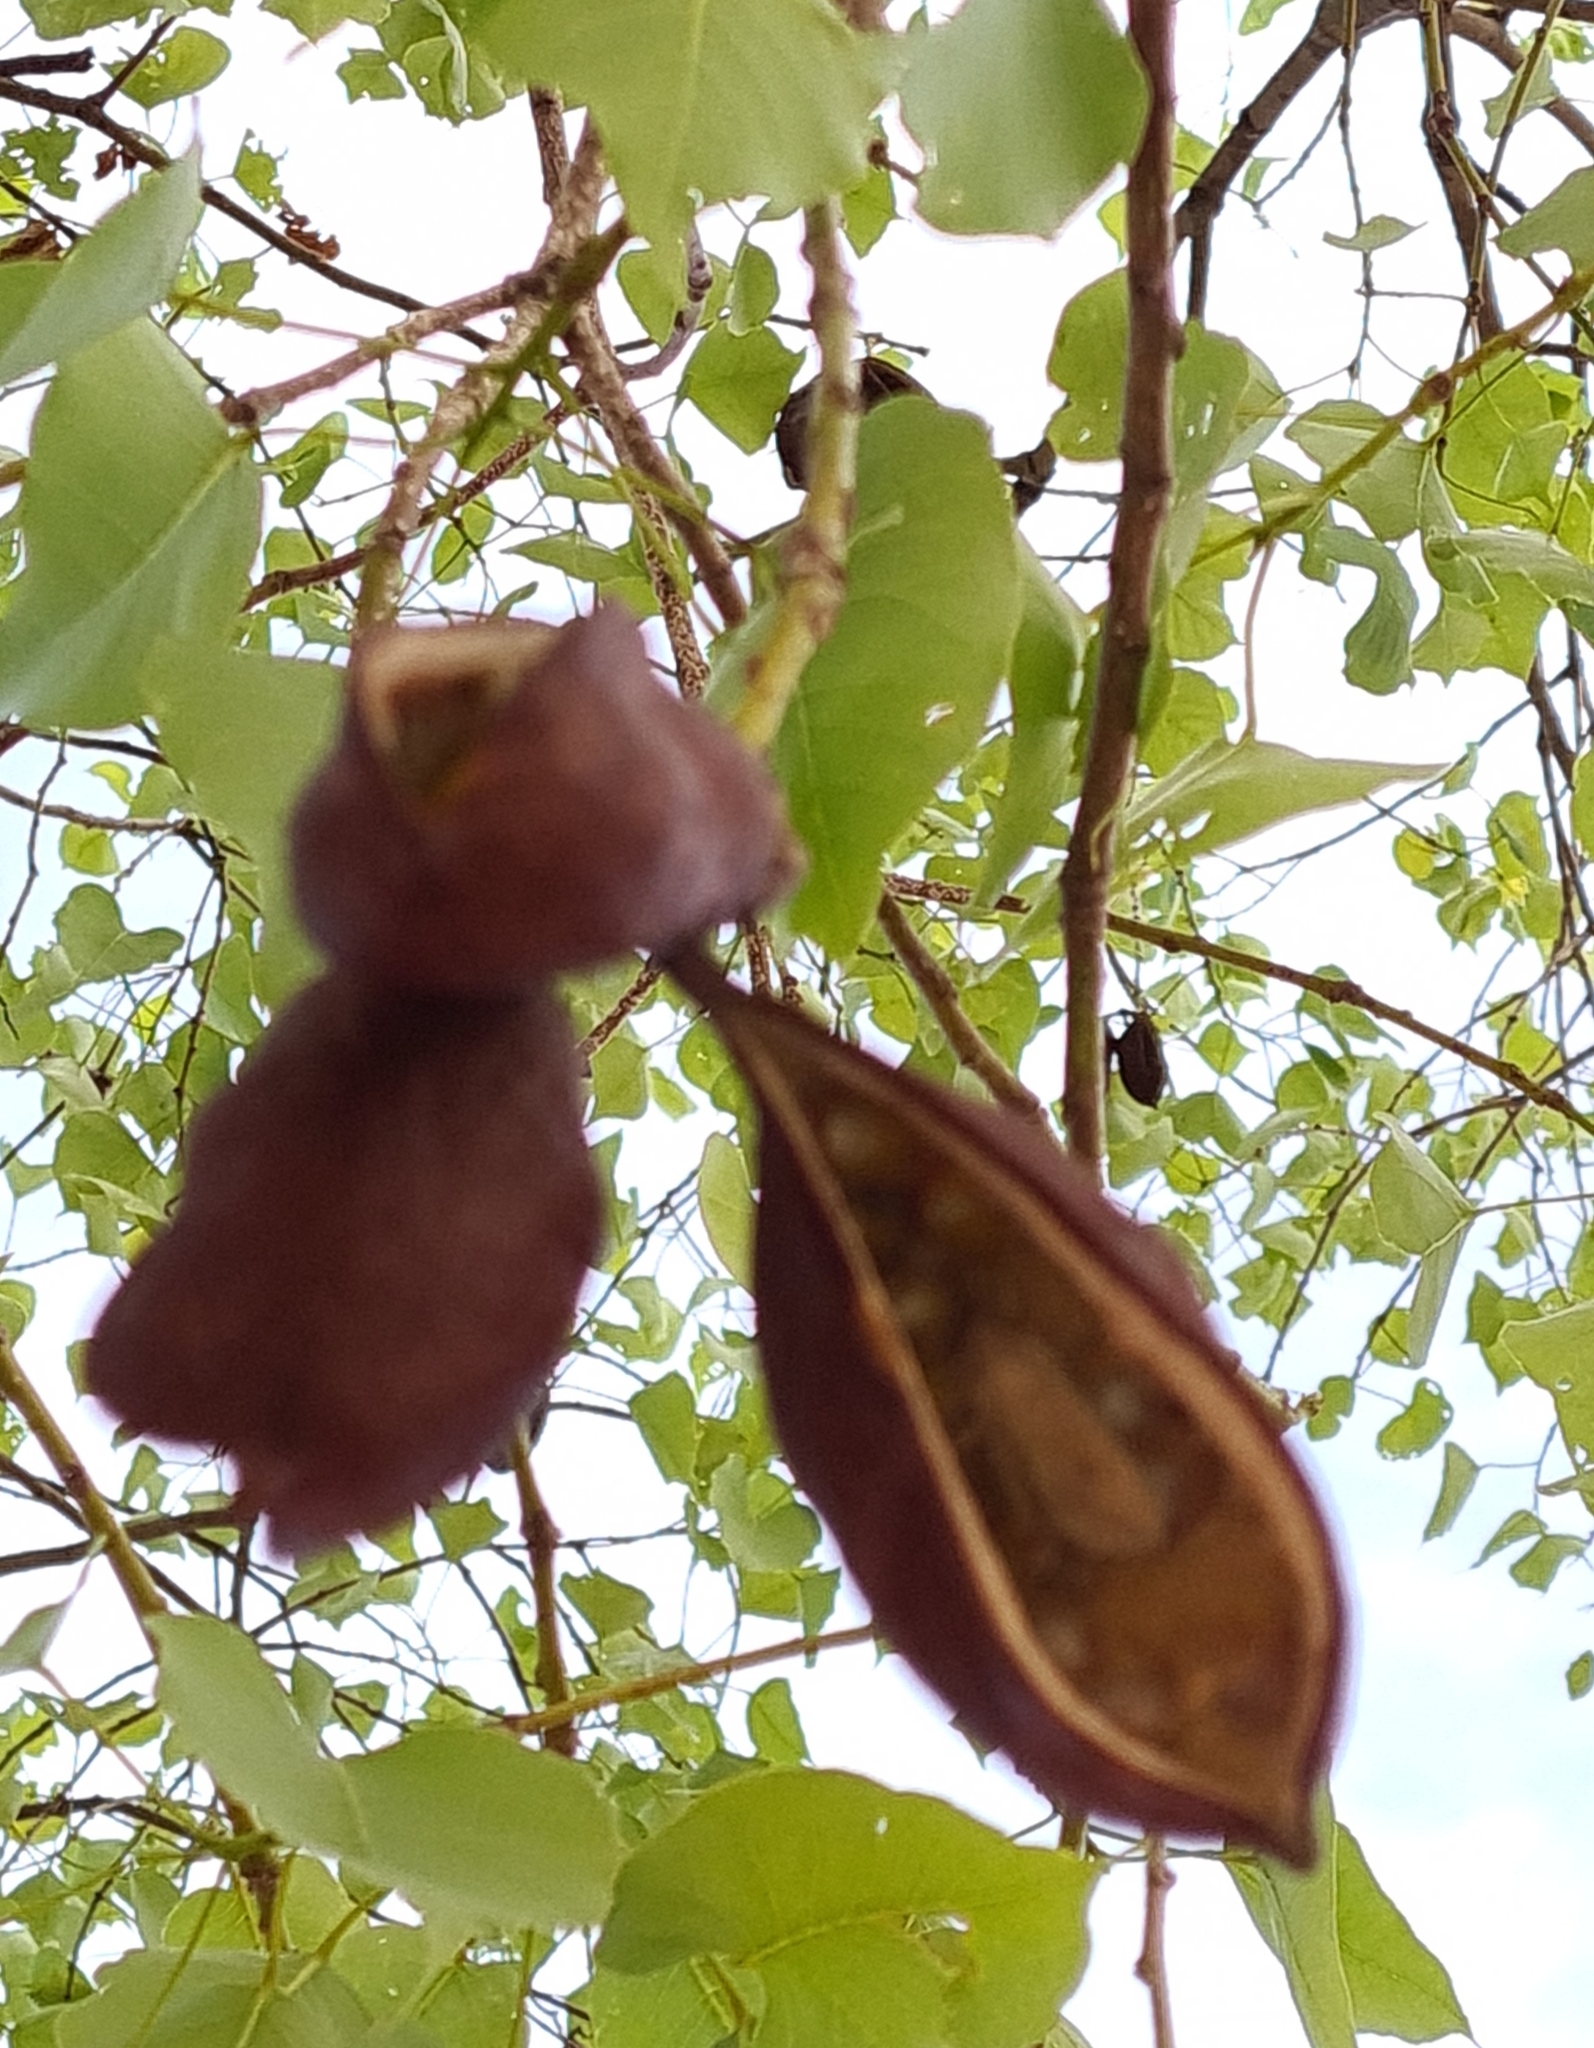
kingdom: Plantae
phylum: Tracheophyta
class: Magnoliopsida
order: Malvales
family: Malvaceae
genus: Brachychiton
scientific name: Brachychiton diversifolius
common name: Northern kurrajong
